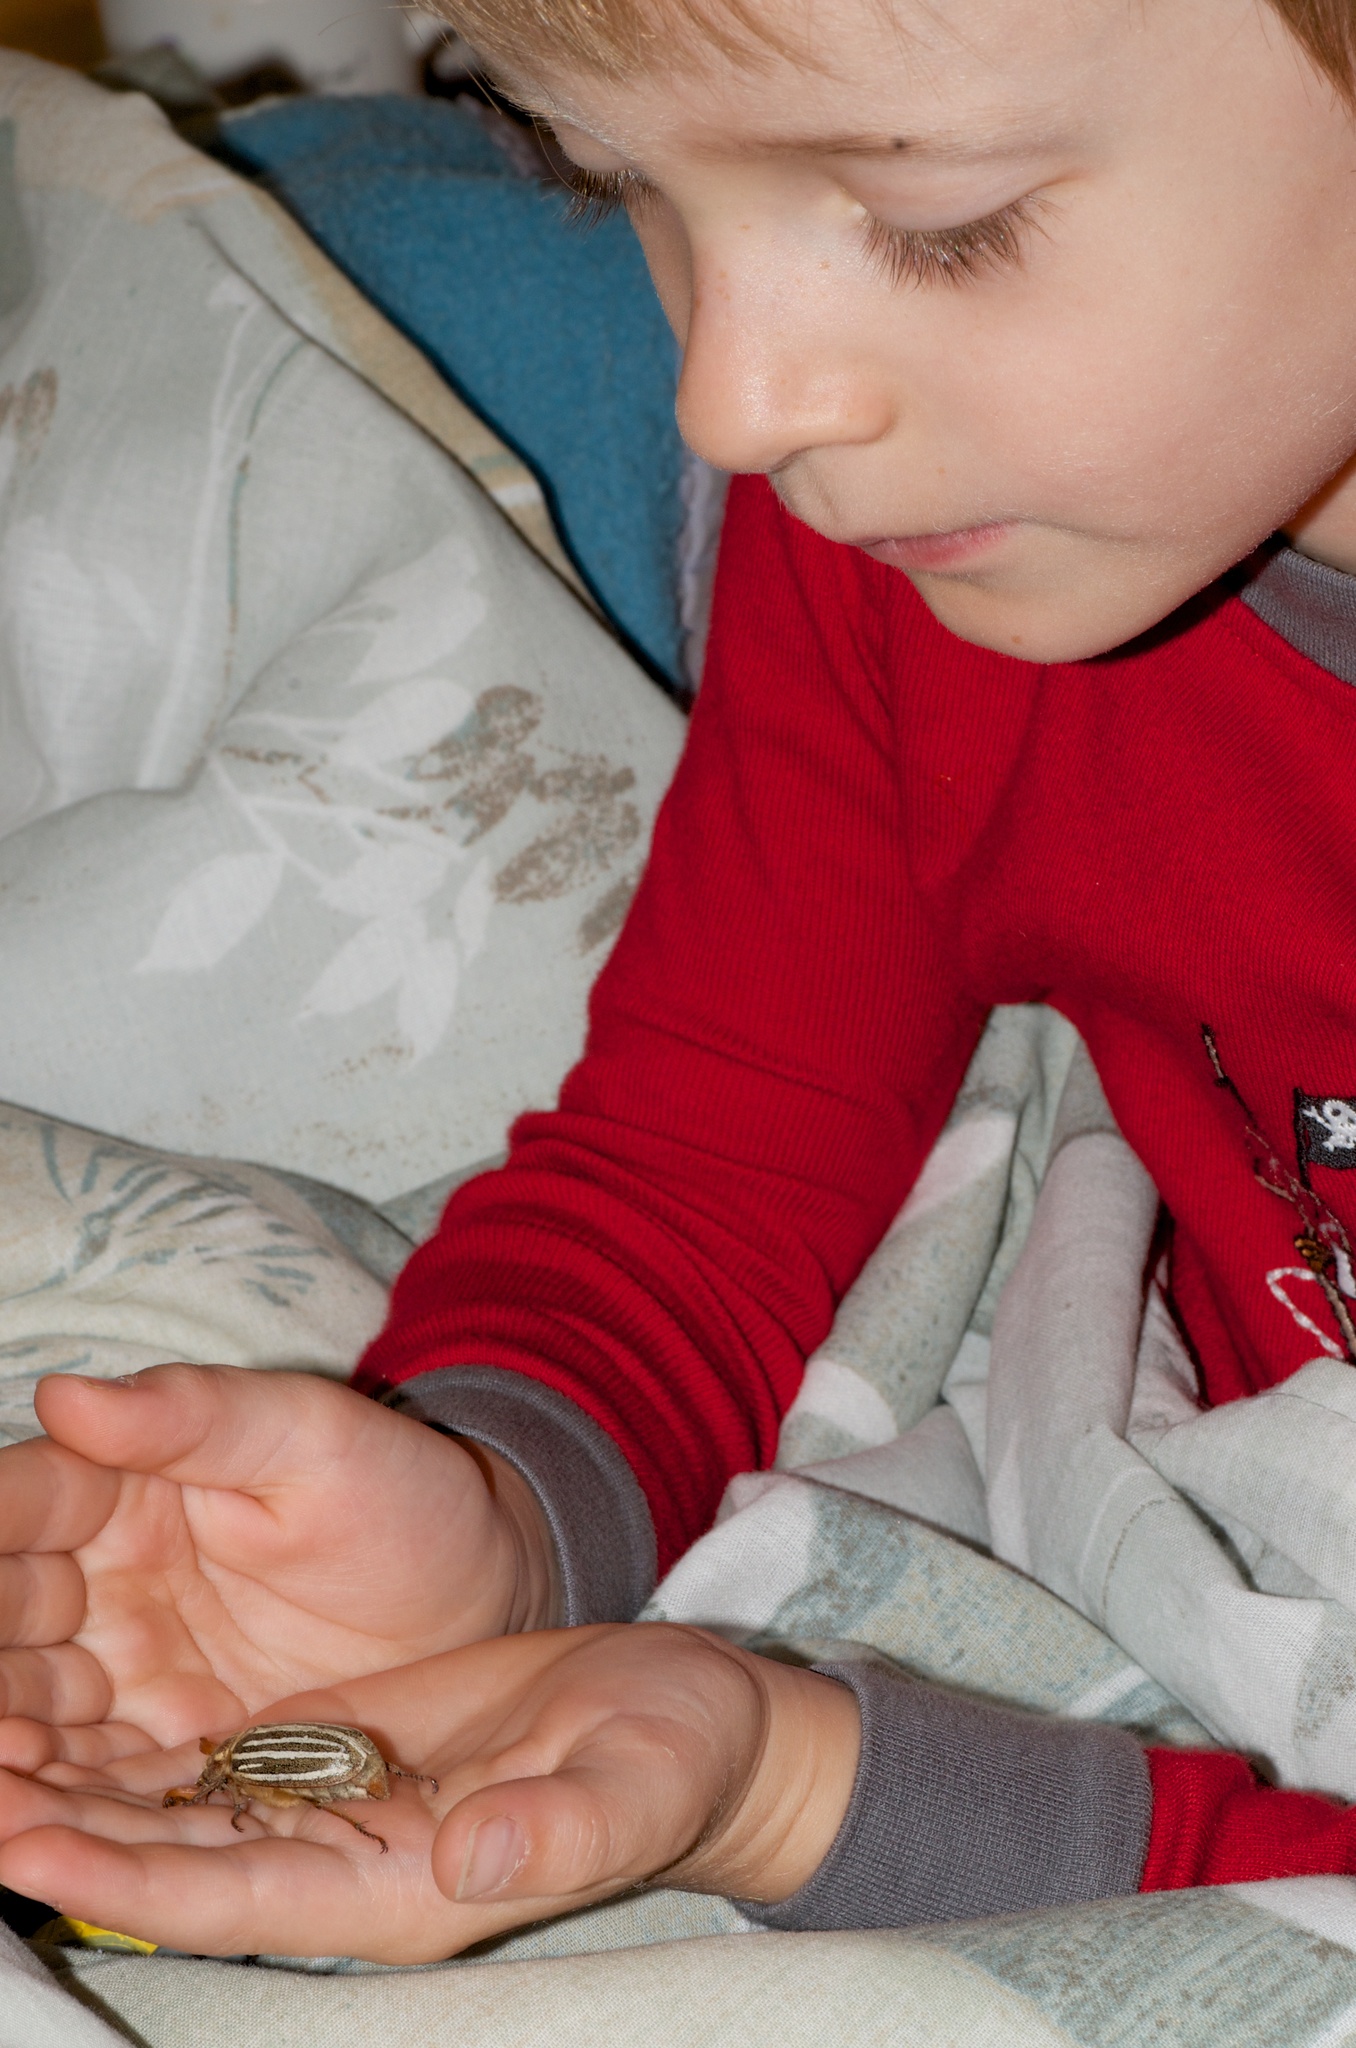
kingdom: Animalia
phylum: Arthropoda
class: Insecta
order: Coleoptera
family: Scarabaeidae
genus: Polyphylla
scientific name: Polyphylla decemlineata
